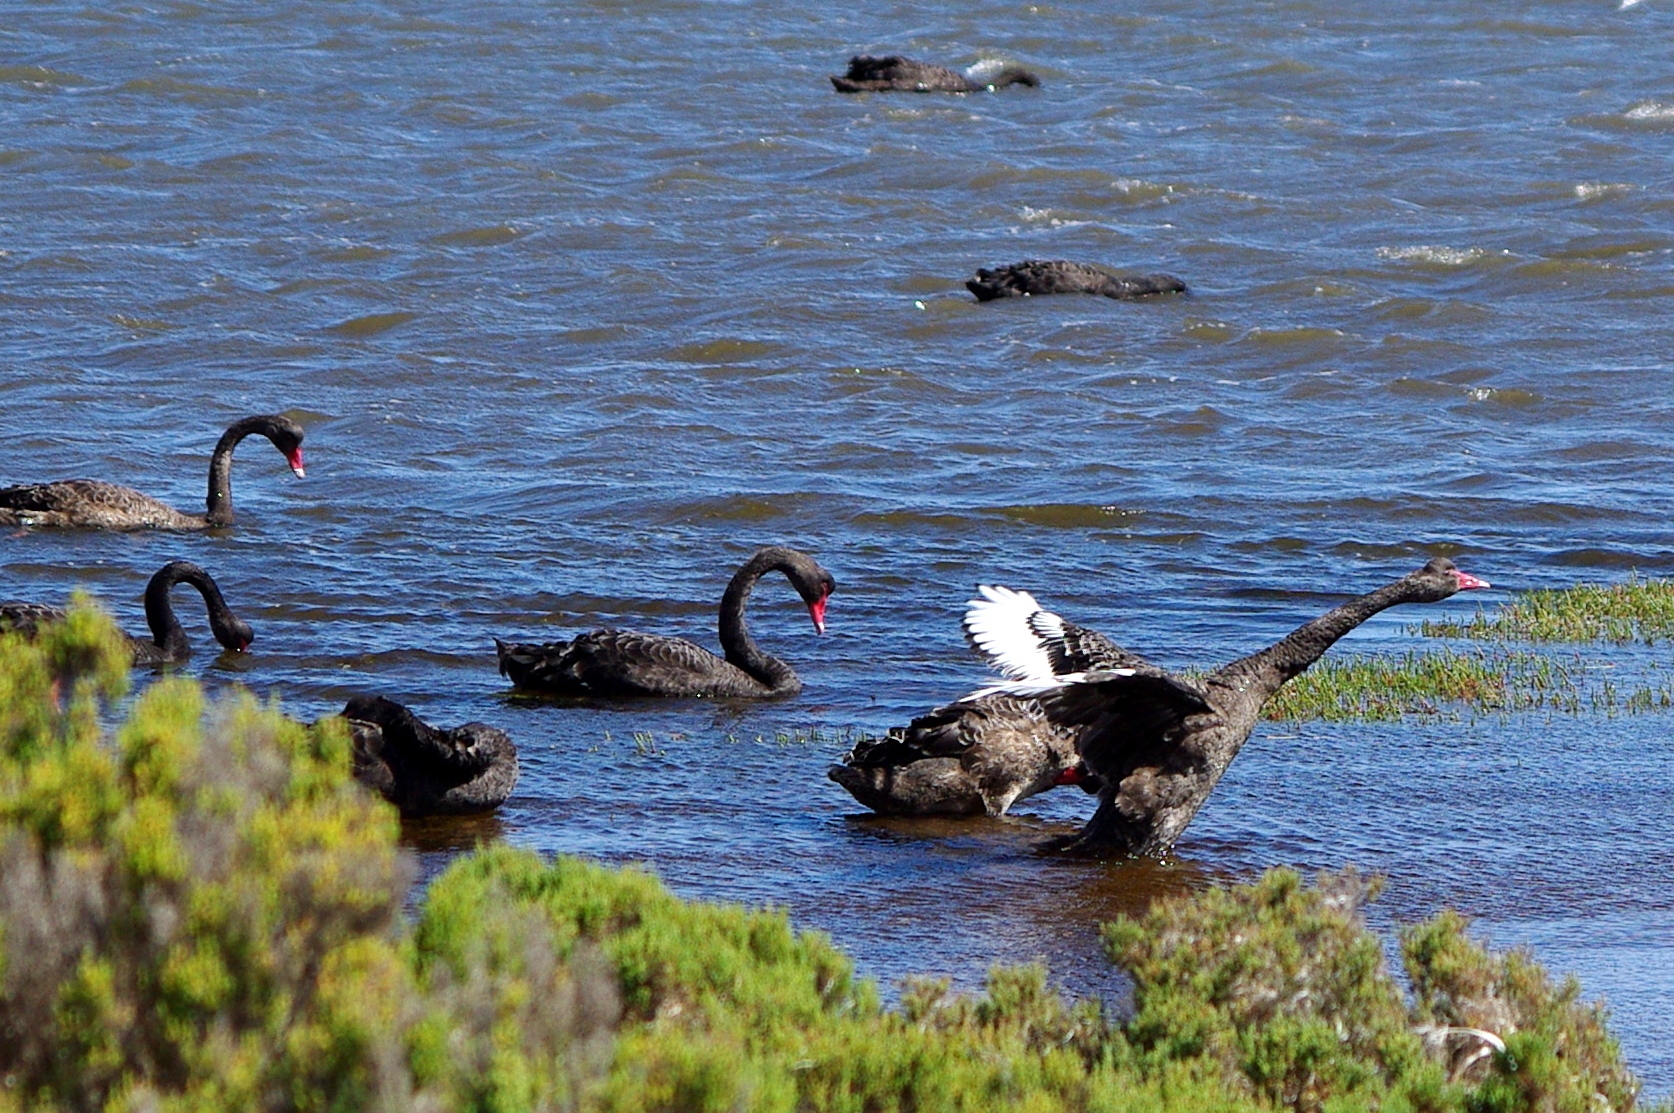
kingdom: Animalia
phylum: Chordata
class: Aves
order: Anseriformes
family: Anatidae
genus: Cygnus
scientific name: Cygnus atratus
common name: Black swan
